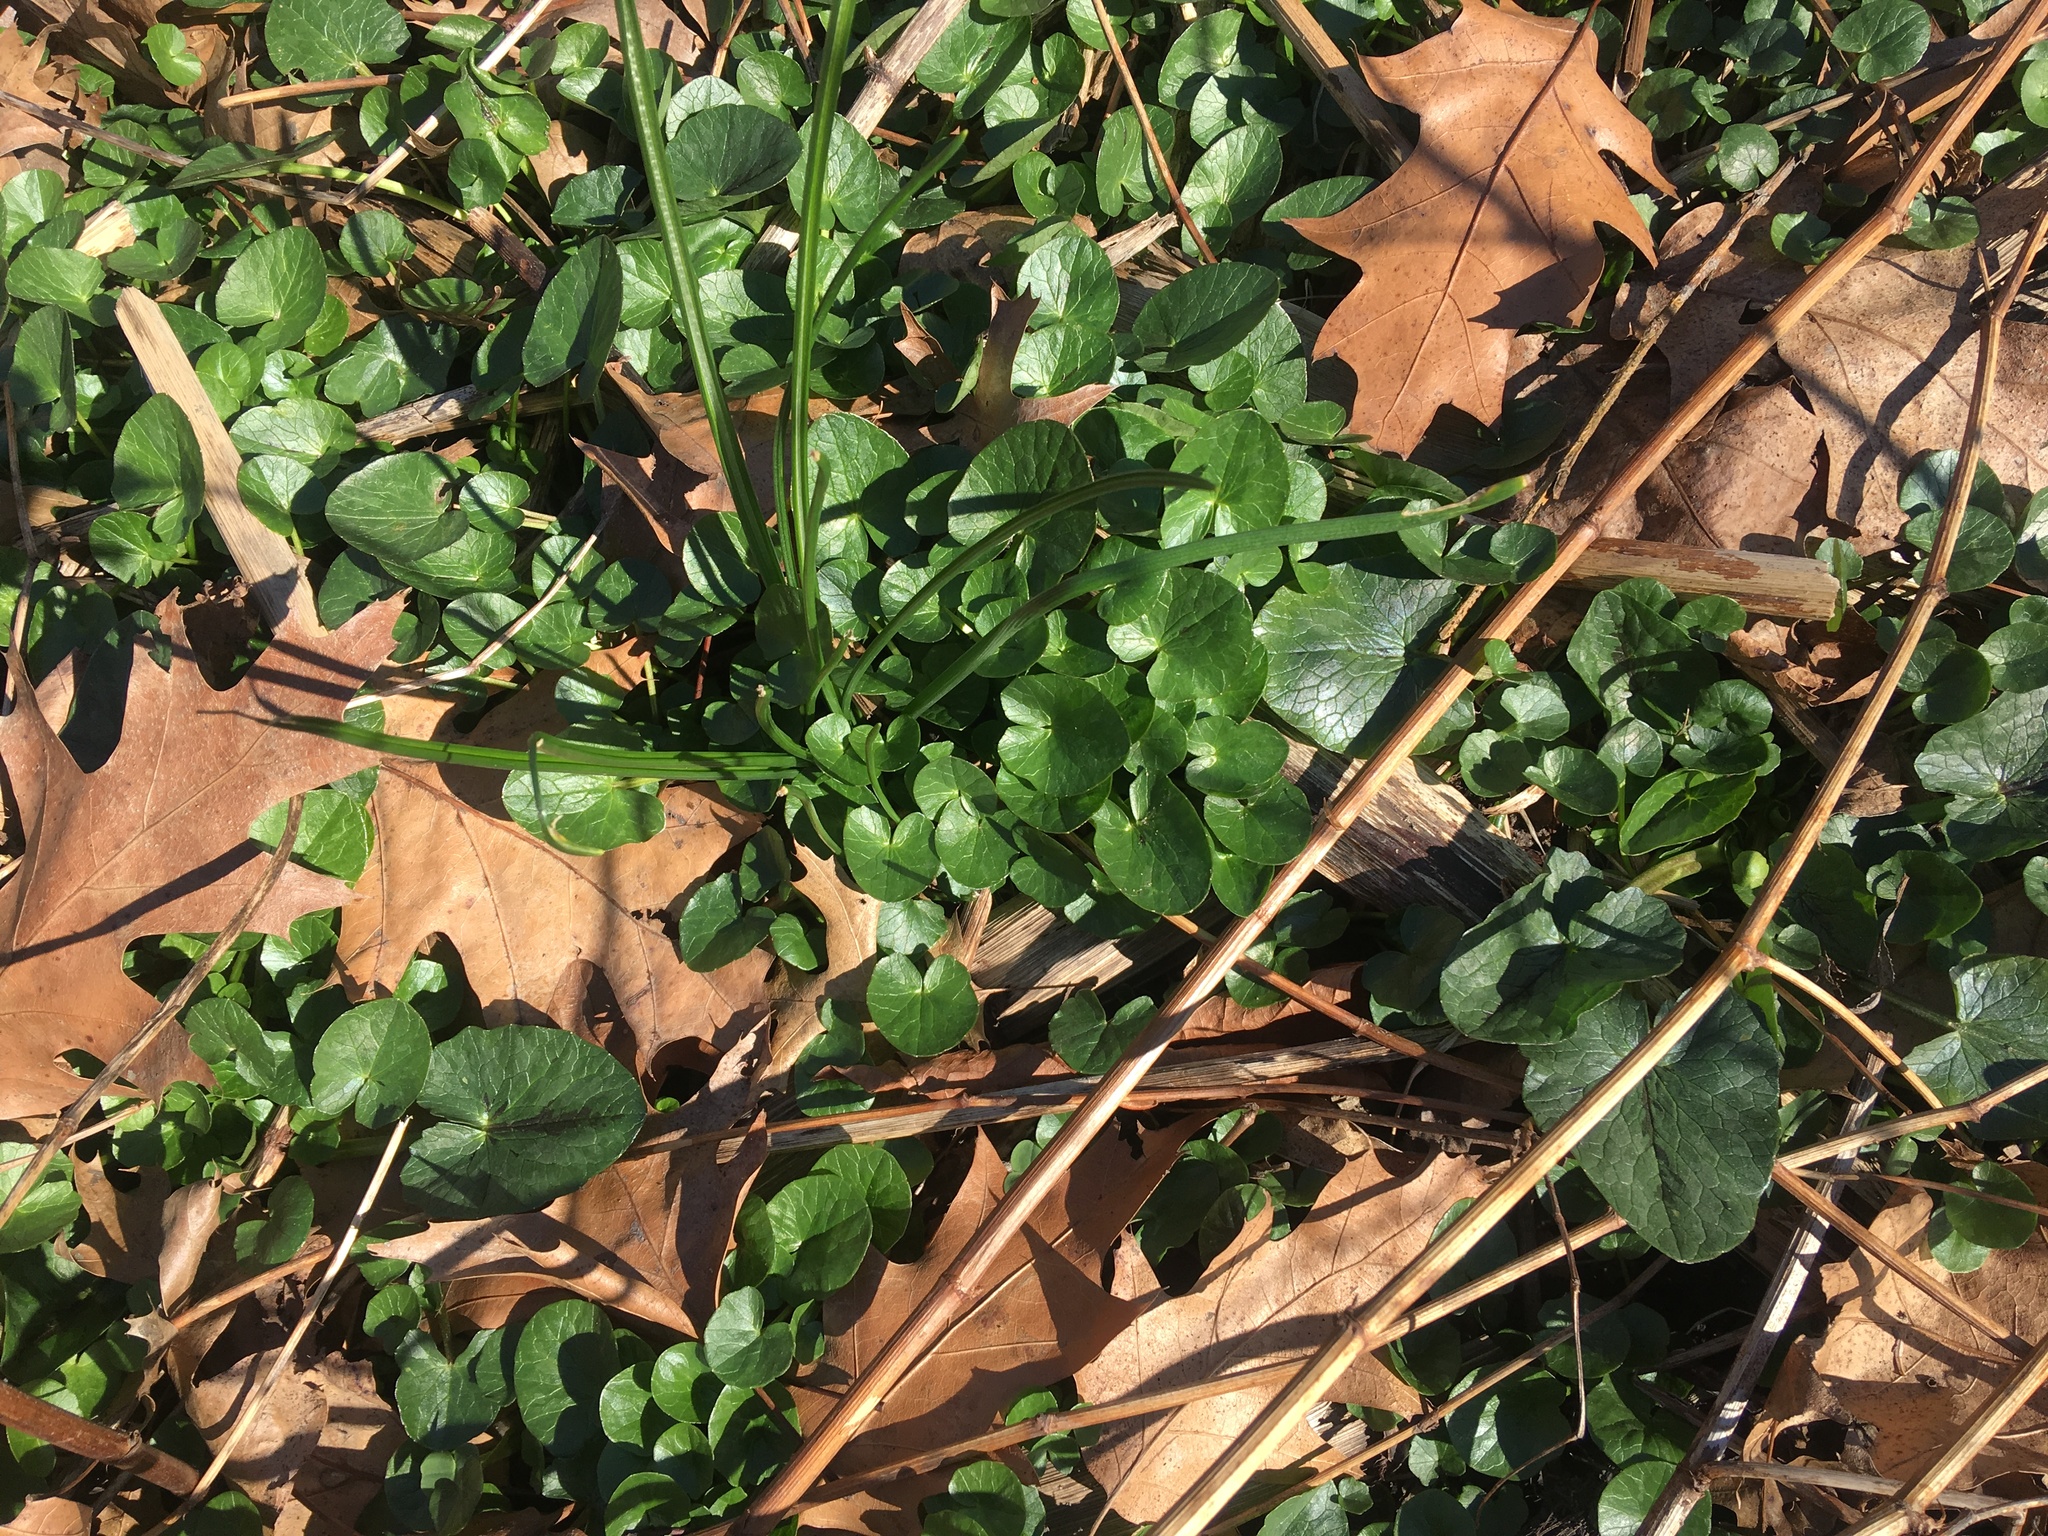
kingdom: Plantae
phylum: Tracheophyta
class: Magnoliopsida
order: Ranunculales
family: Ranunculaceae
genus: Ficaria
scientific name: Ficaria verna
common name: Lesser celandine
